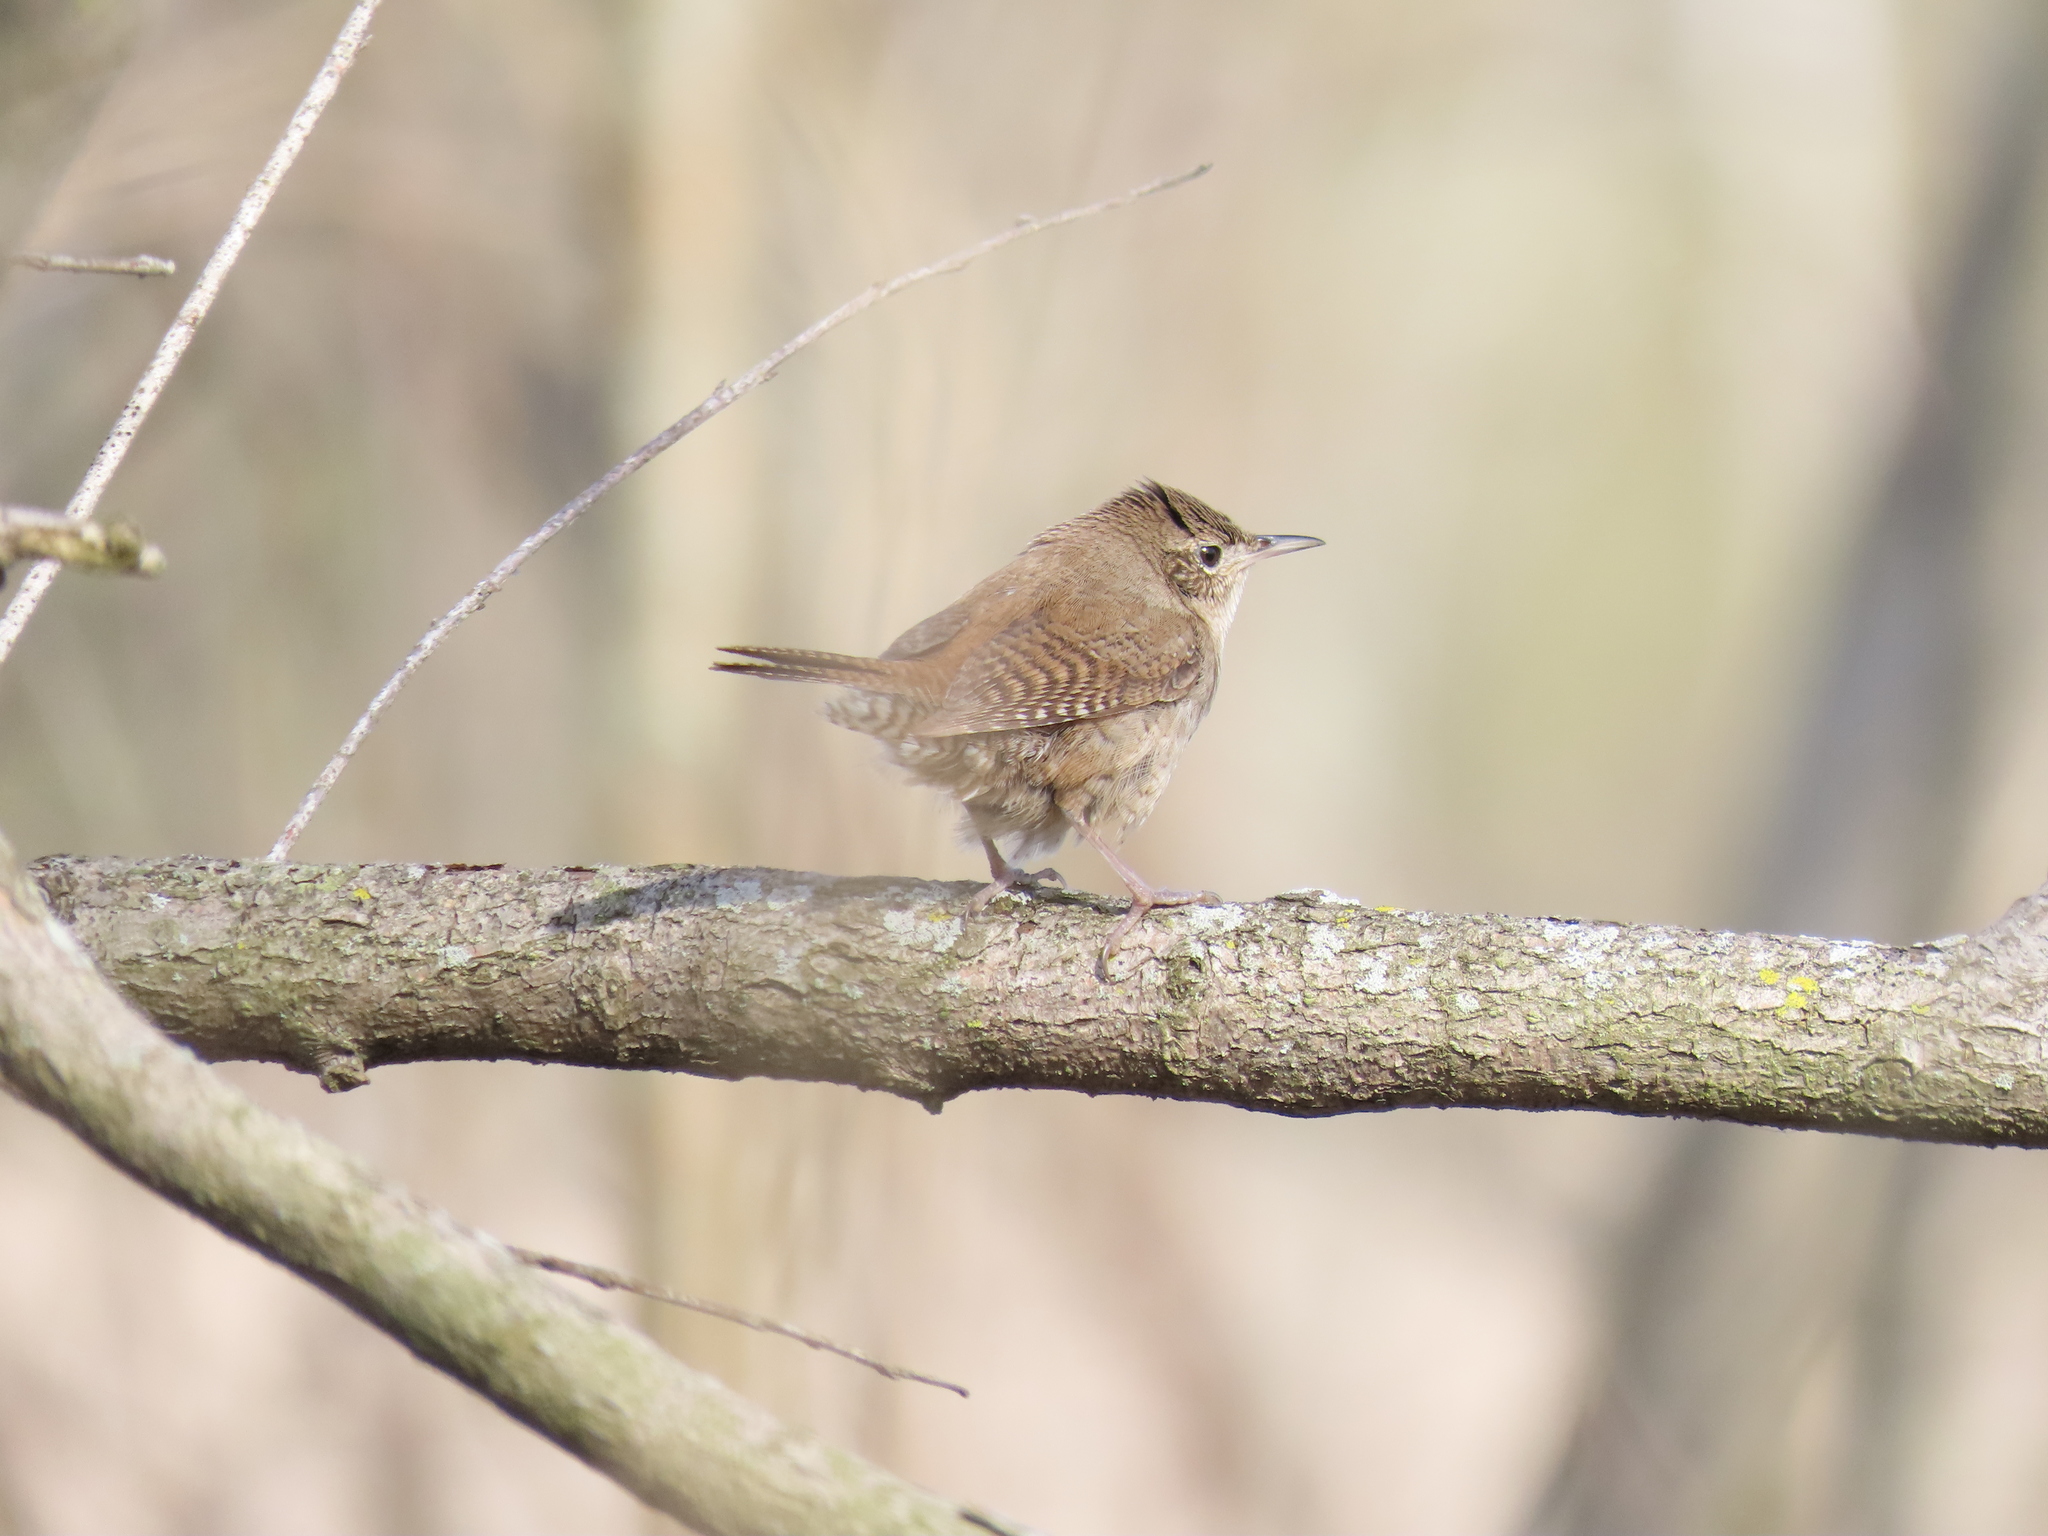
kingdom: Animalia
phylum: Chordata
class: Aves
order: Passeriformes
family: Troglodytidae
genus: Troglodytes
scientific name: Troglodytes aedon
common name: House wren
